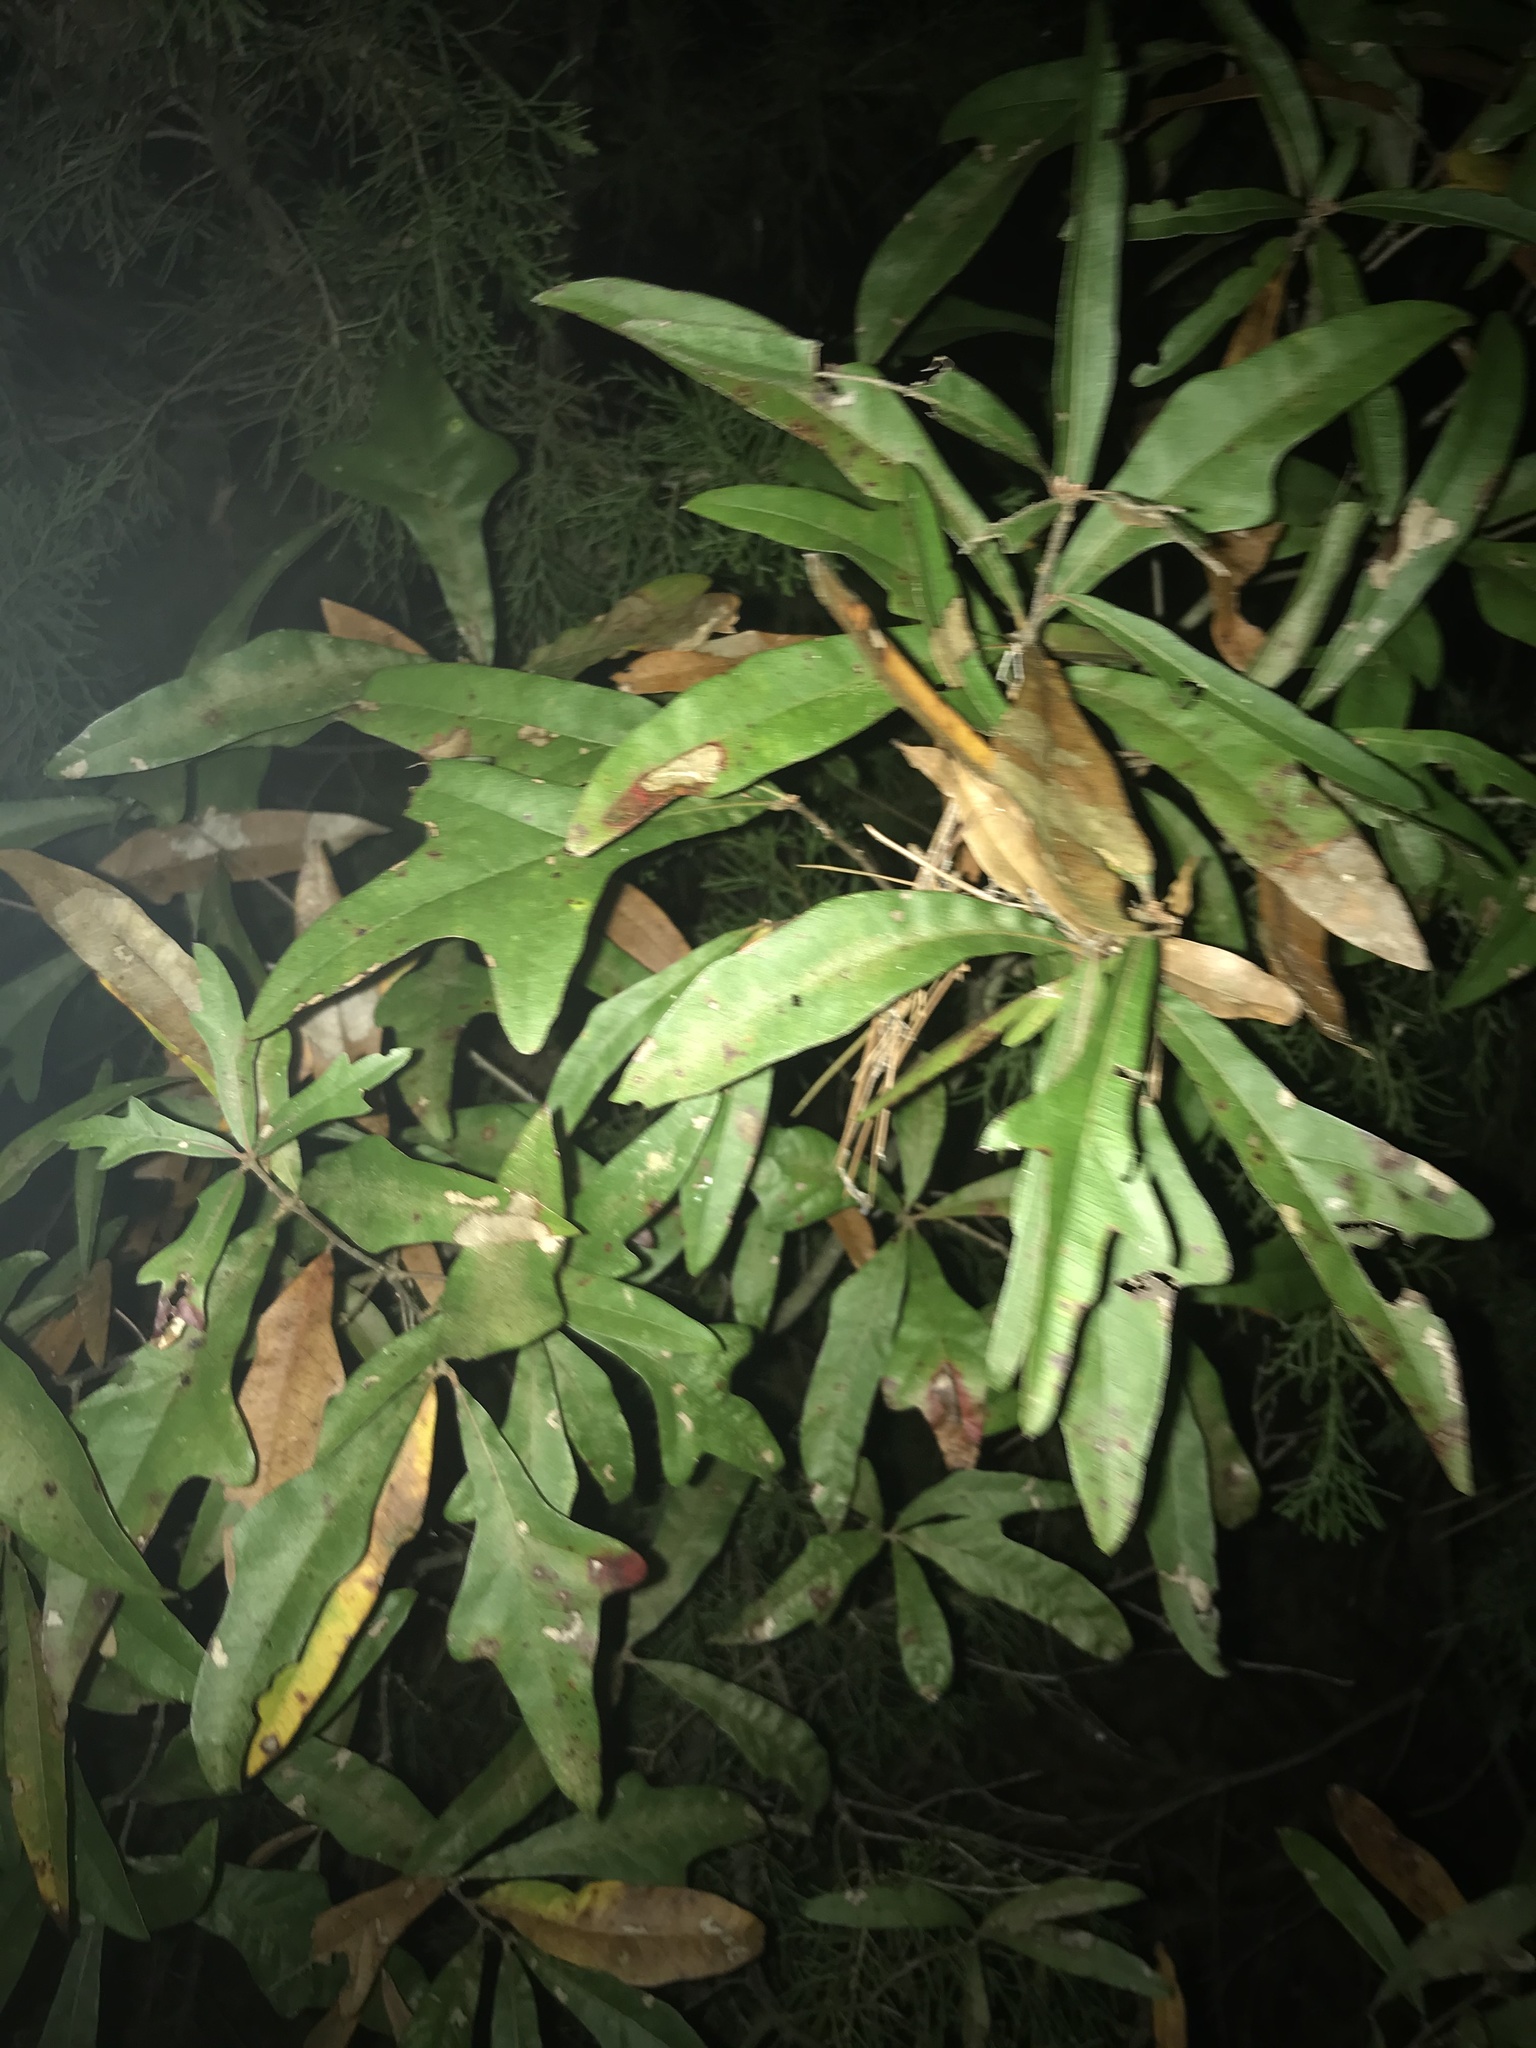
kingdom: Plantae
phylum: Tracheophyta
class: Magnoliopsida
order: Fagales
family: Fagaceae
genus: Quercus
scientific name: Quercus nigra
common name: Water oak
